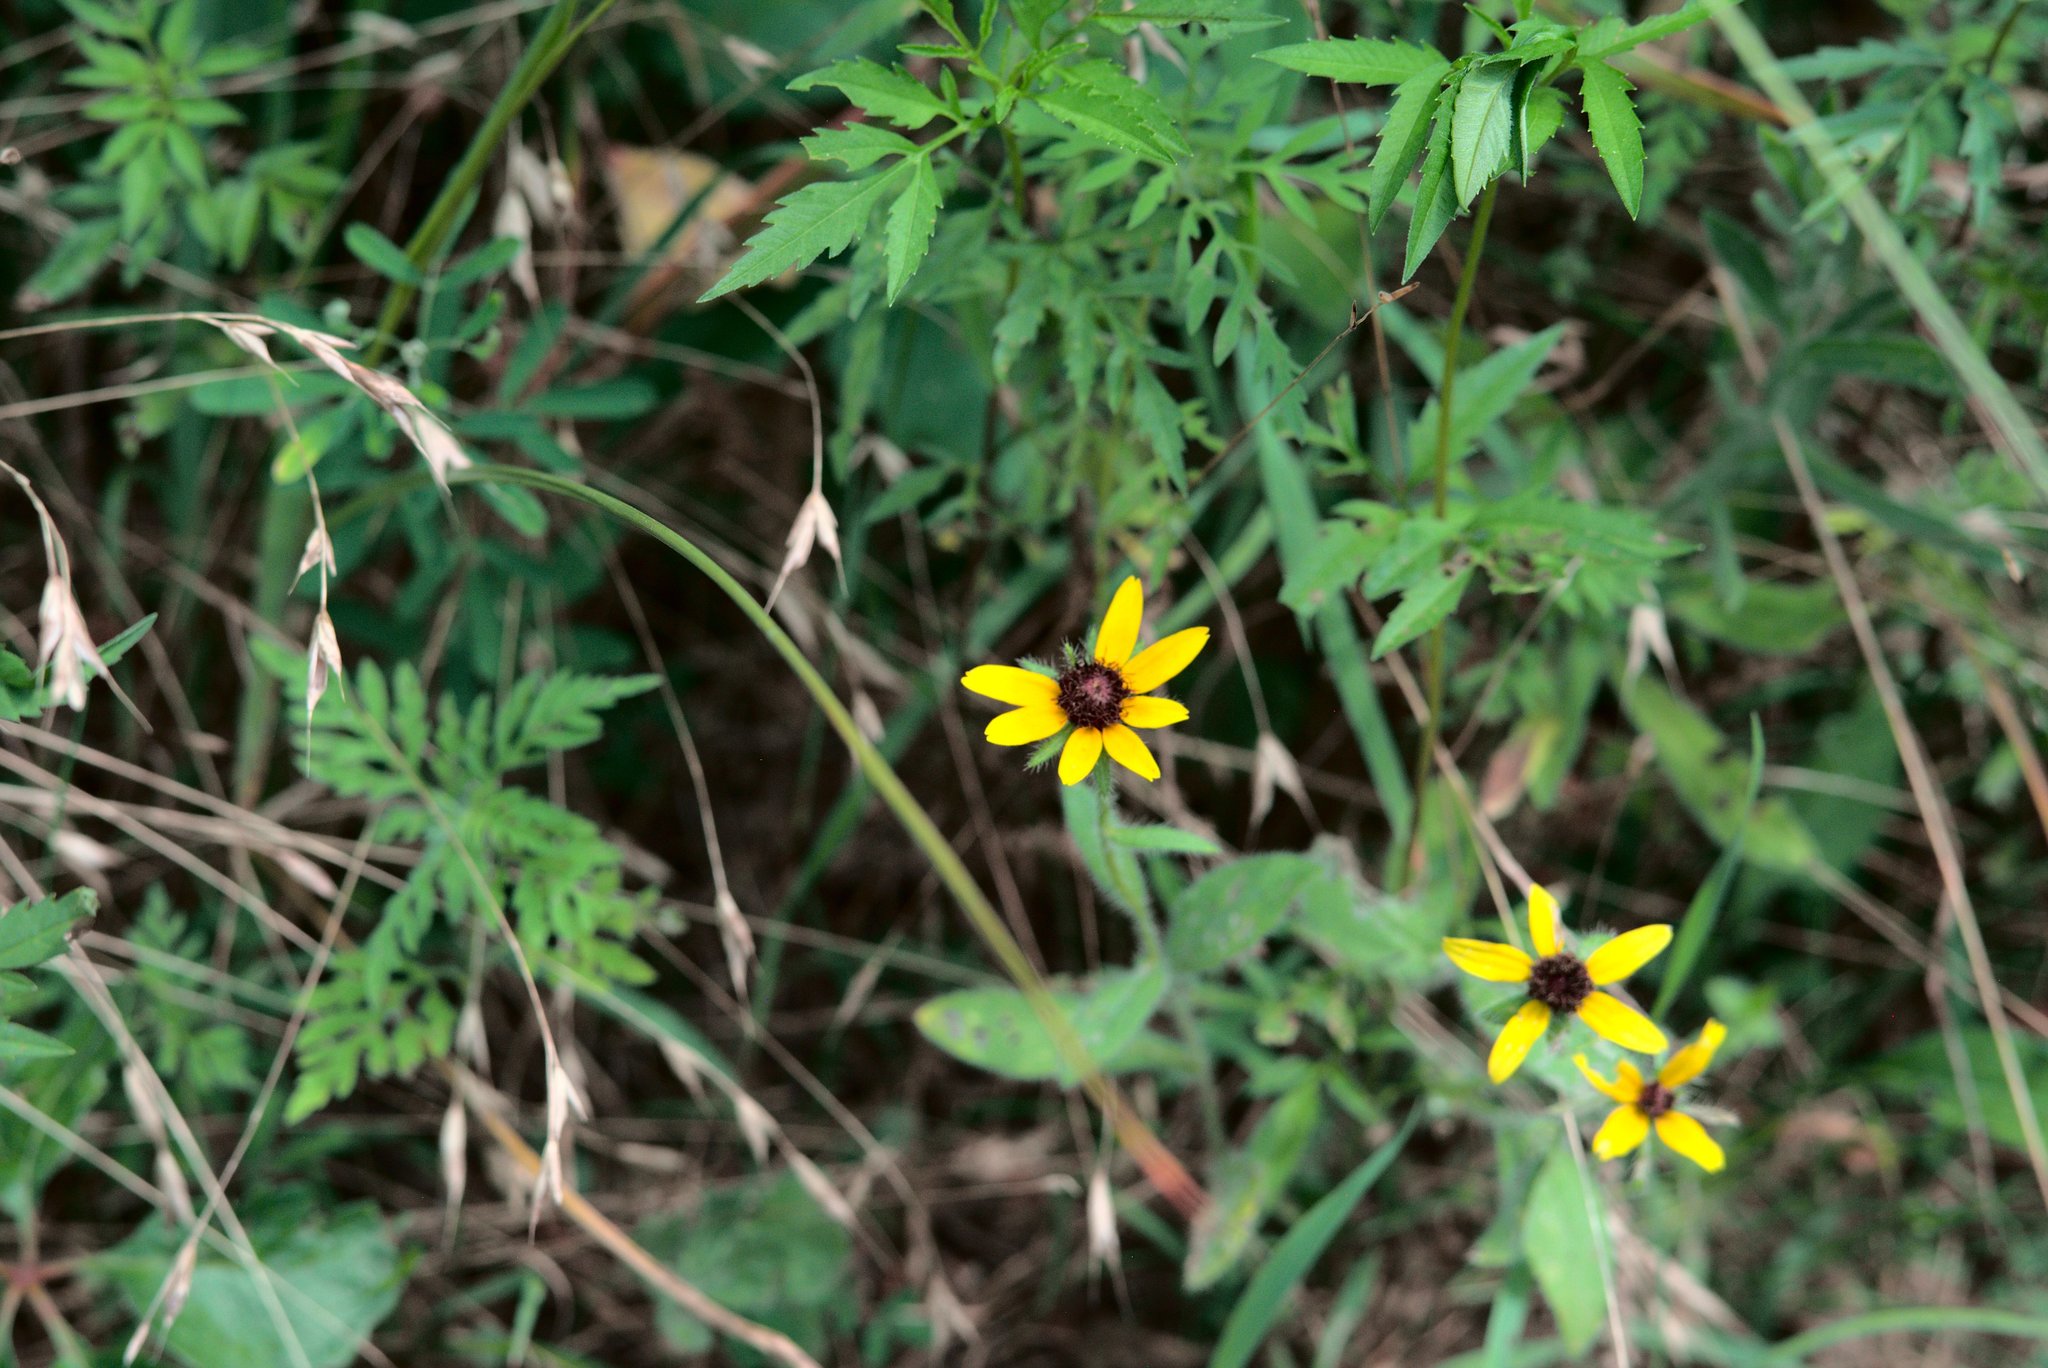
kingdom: Plantae
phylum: Tracheophyta
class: Magnoliopsida
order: Asterales
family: Asteraceae
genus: Rudbeckia
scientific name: Rudbeckia hirta
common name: Black-eyed-susan
